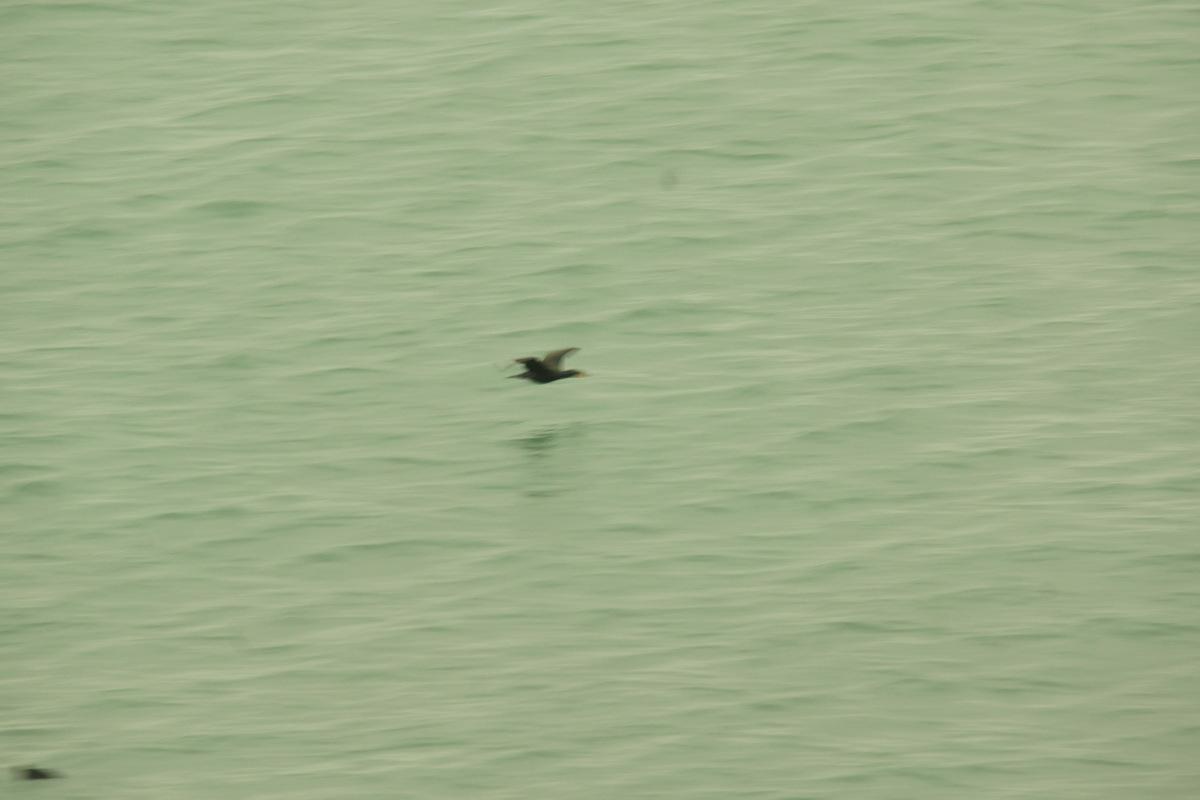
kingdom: Animalia
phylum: Chordata
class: Aves
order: Suliformes
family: Phalacrocoracidae
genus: Phalacrocorax
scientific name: Phalacrocorax carbo
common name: Great cormorant
